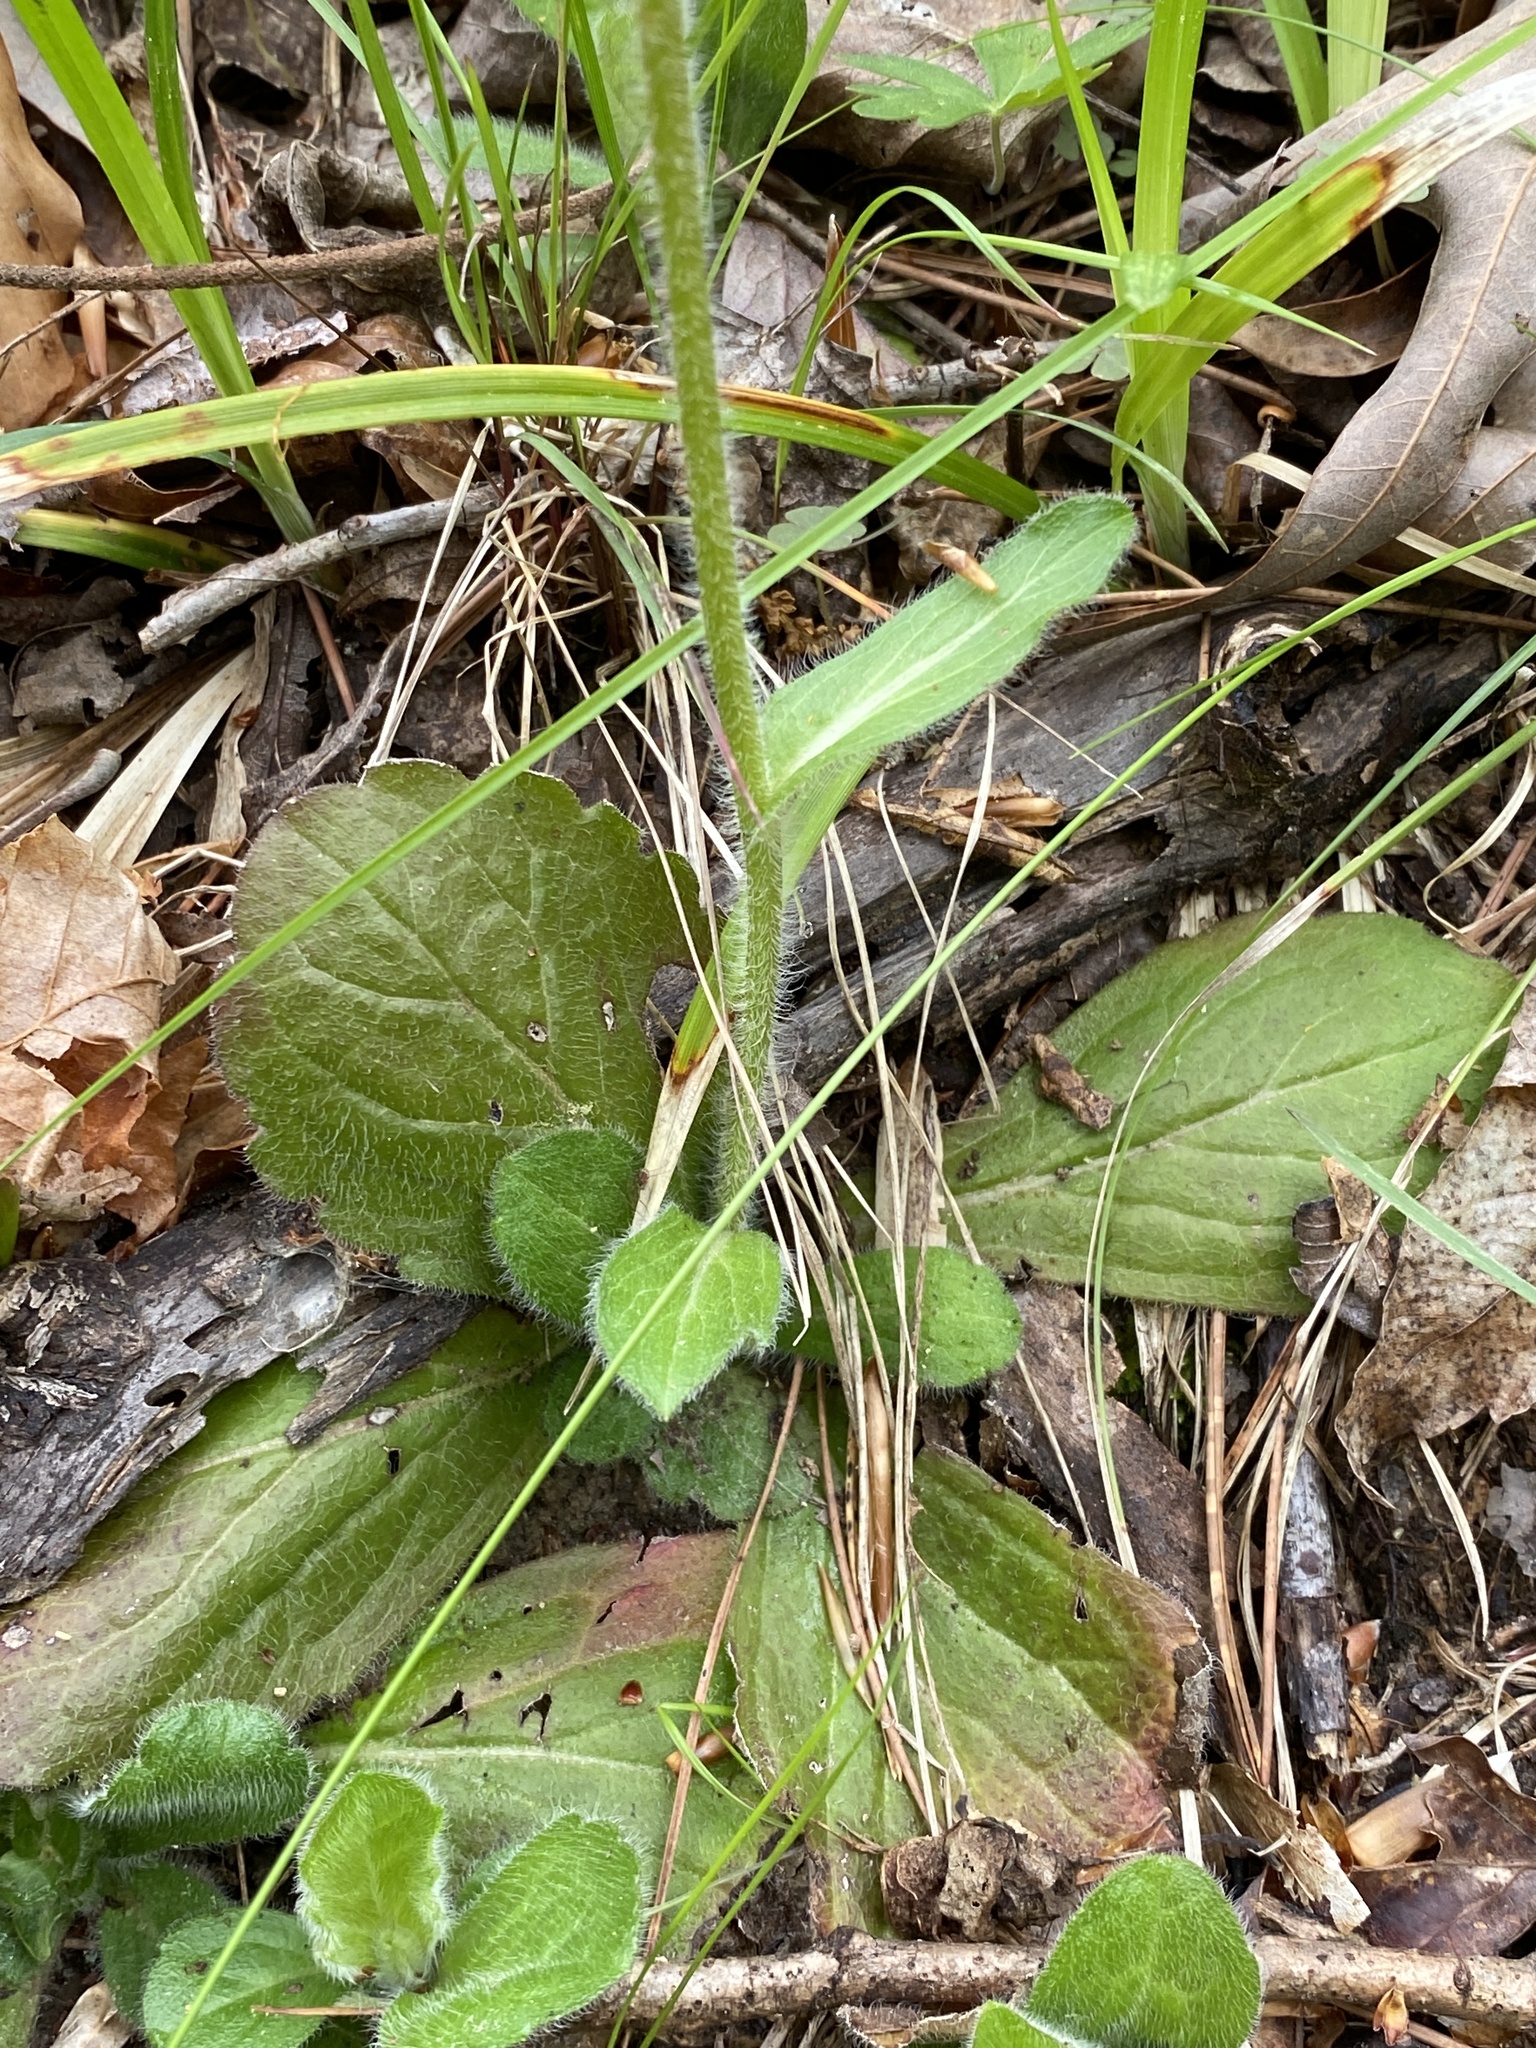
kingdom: Plantae
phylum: Tracheophyta
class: Magnoliopsida
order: Asterales
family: Asteraceae
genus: Erigeron
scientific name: Erigeron pulchellus
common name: Hairy fleabane
